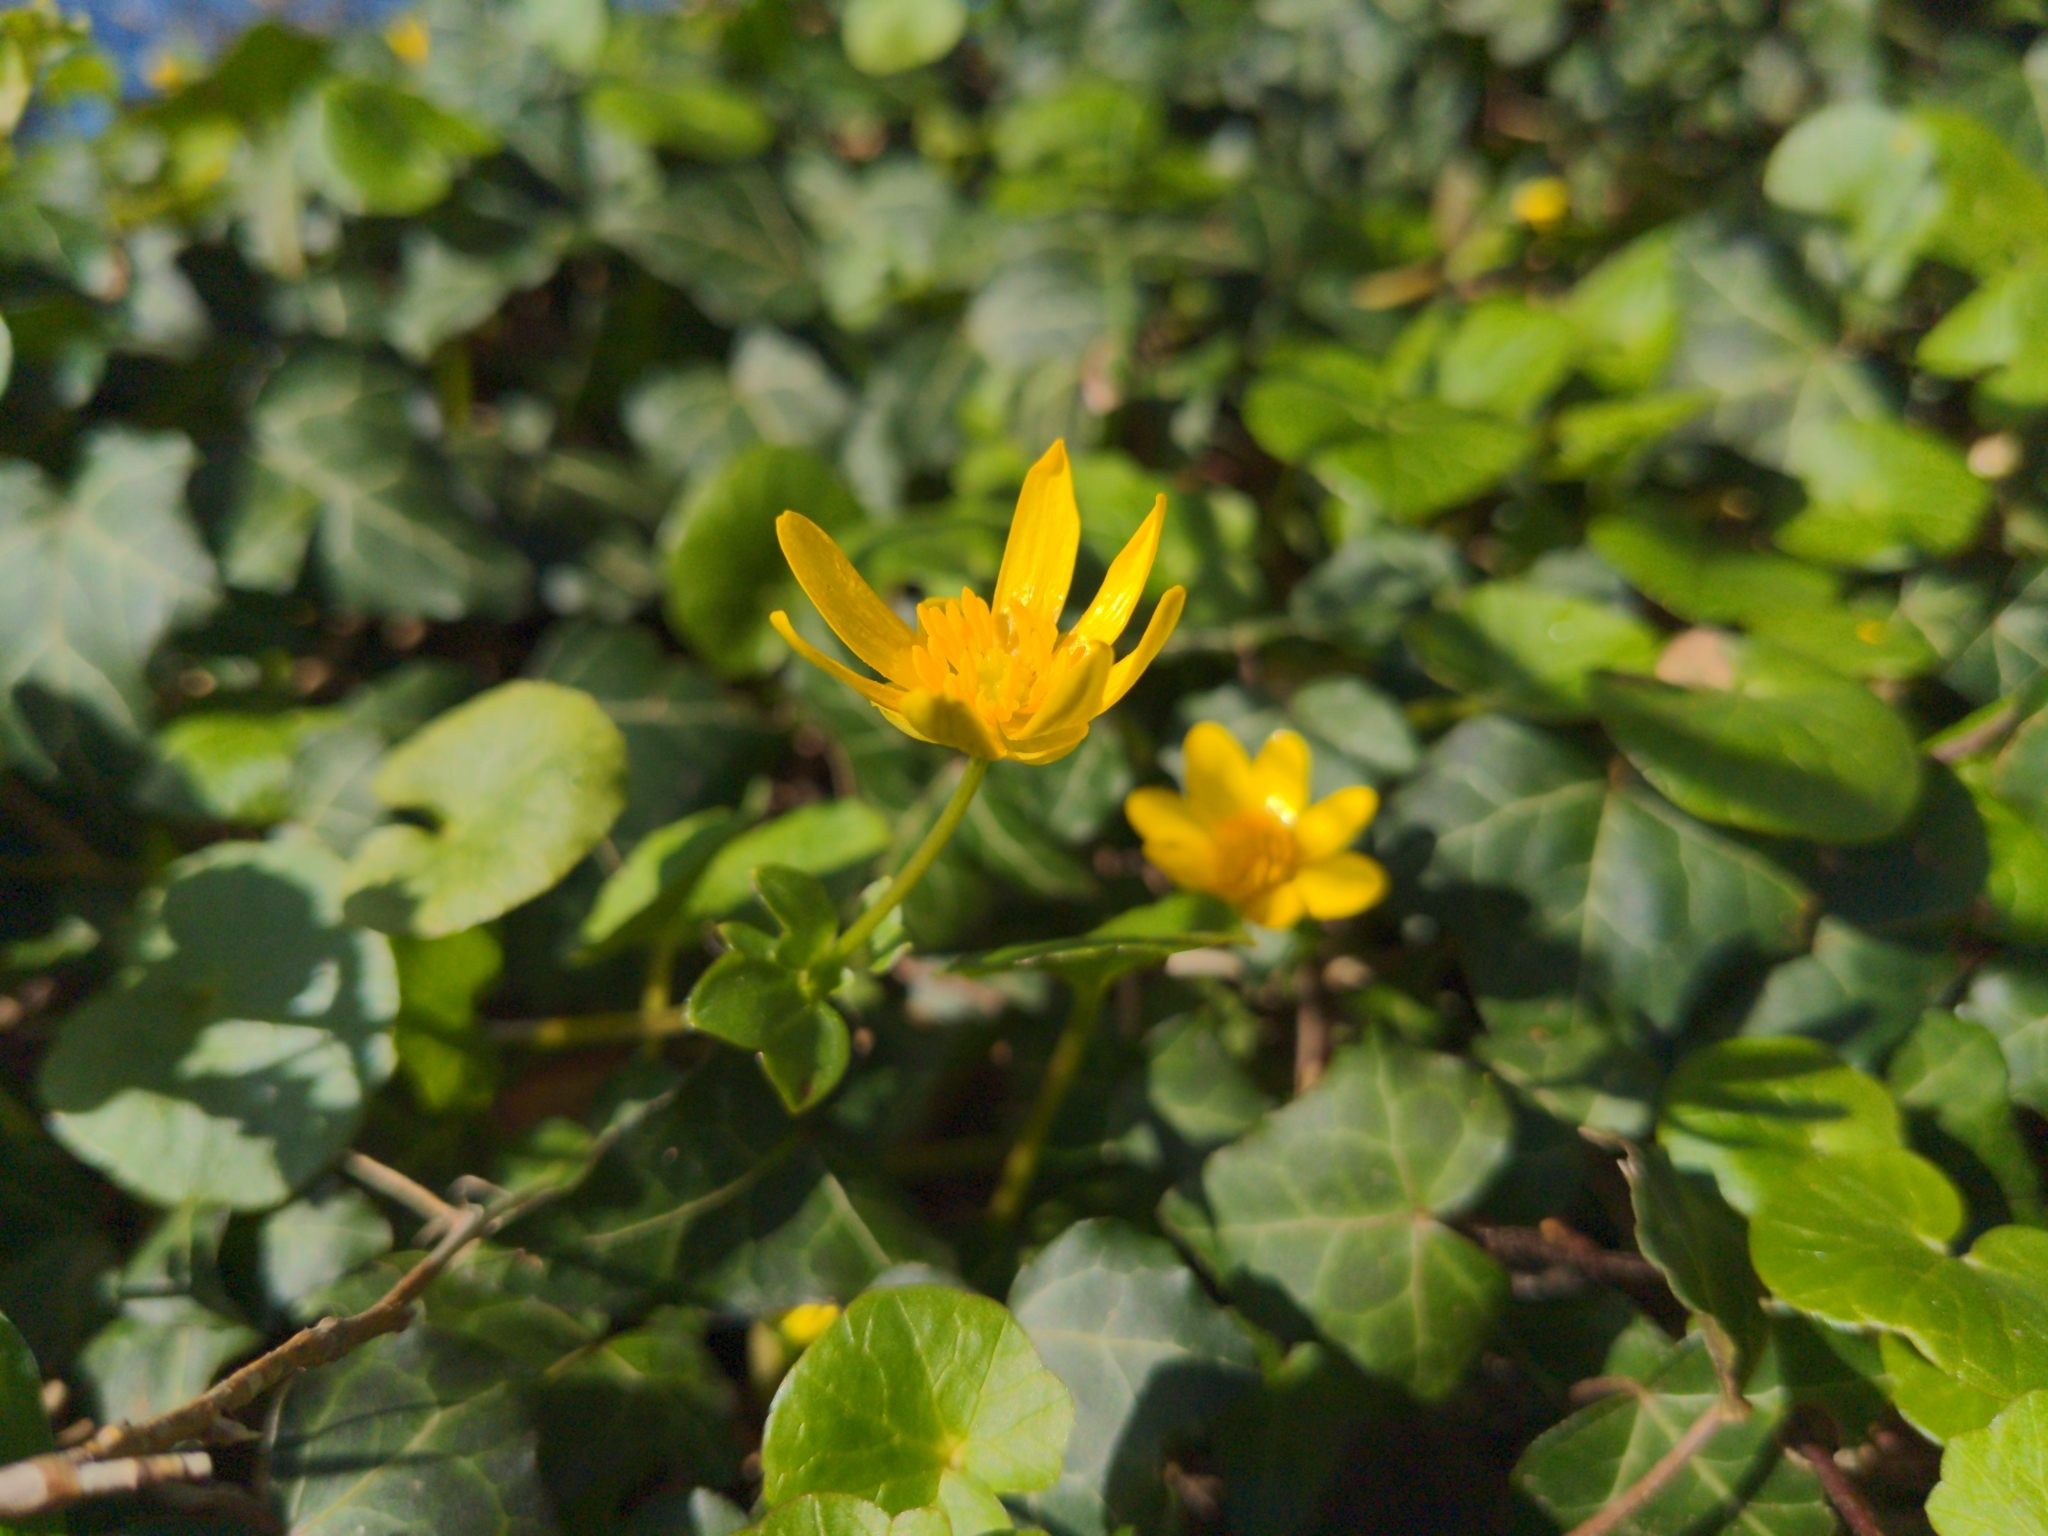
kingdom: Plantae
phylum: Tracheophyta
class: Magnoliopsida
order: Ranunculales
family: Ranunculaceae
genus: Ficaria
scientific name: Ficaria verna
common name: Lesser celandine
